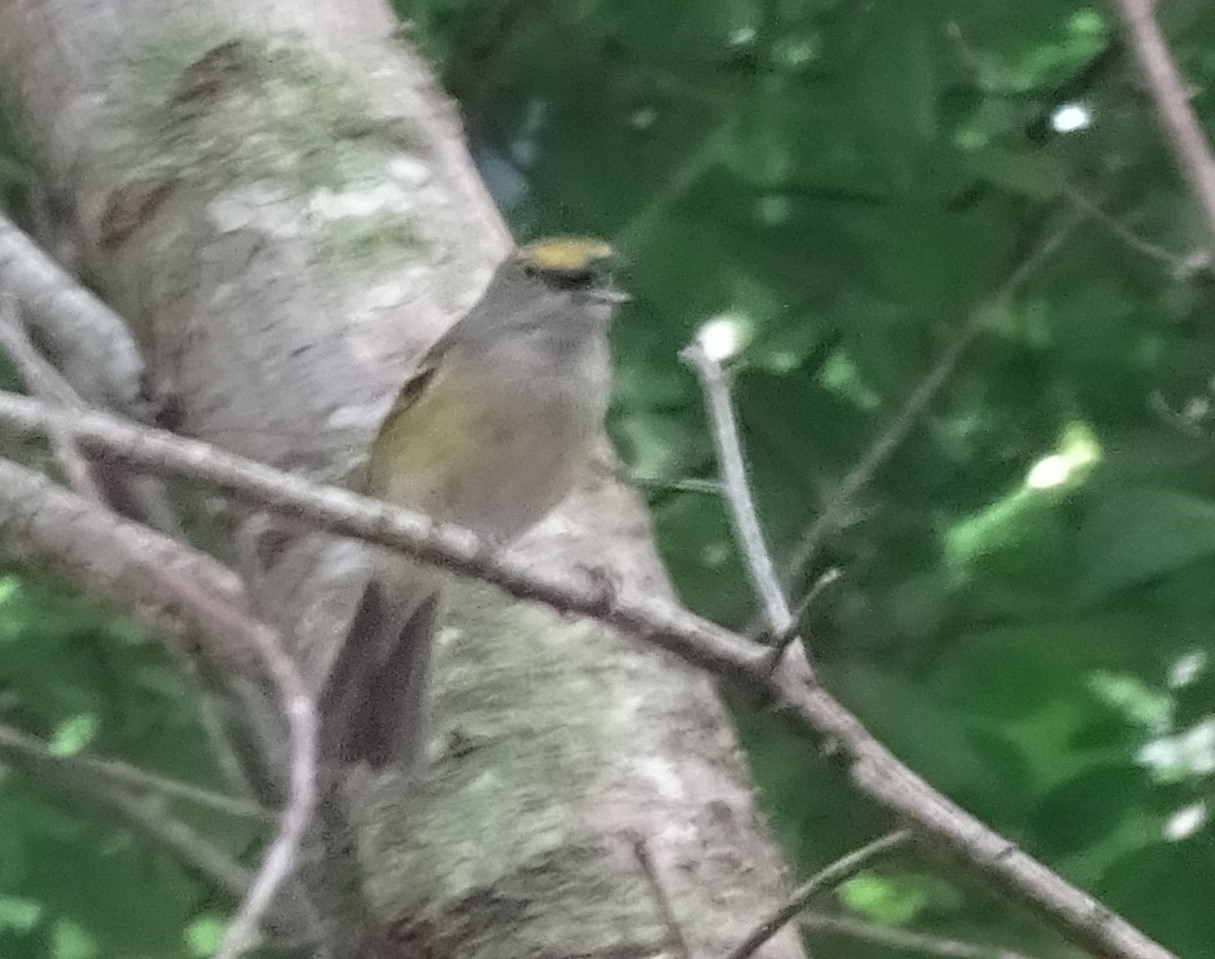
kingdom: Animalia
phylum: Chordata
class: Aves
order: Passeriformes
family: Vireonidae
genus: Vireo
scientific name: Vireo griseus
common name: White-eyed vireo
